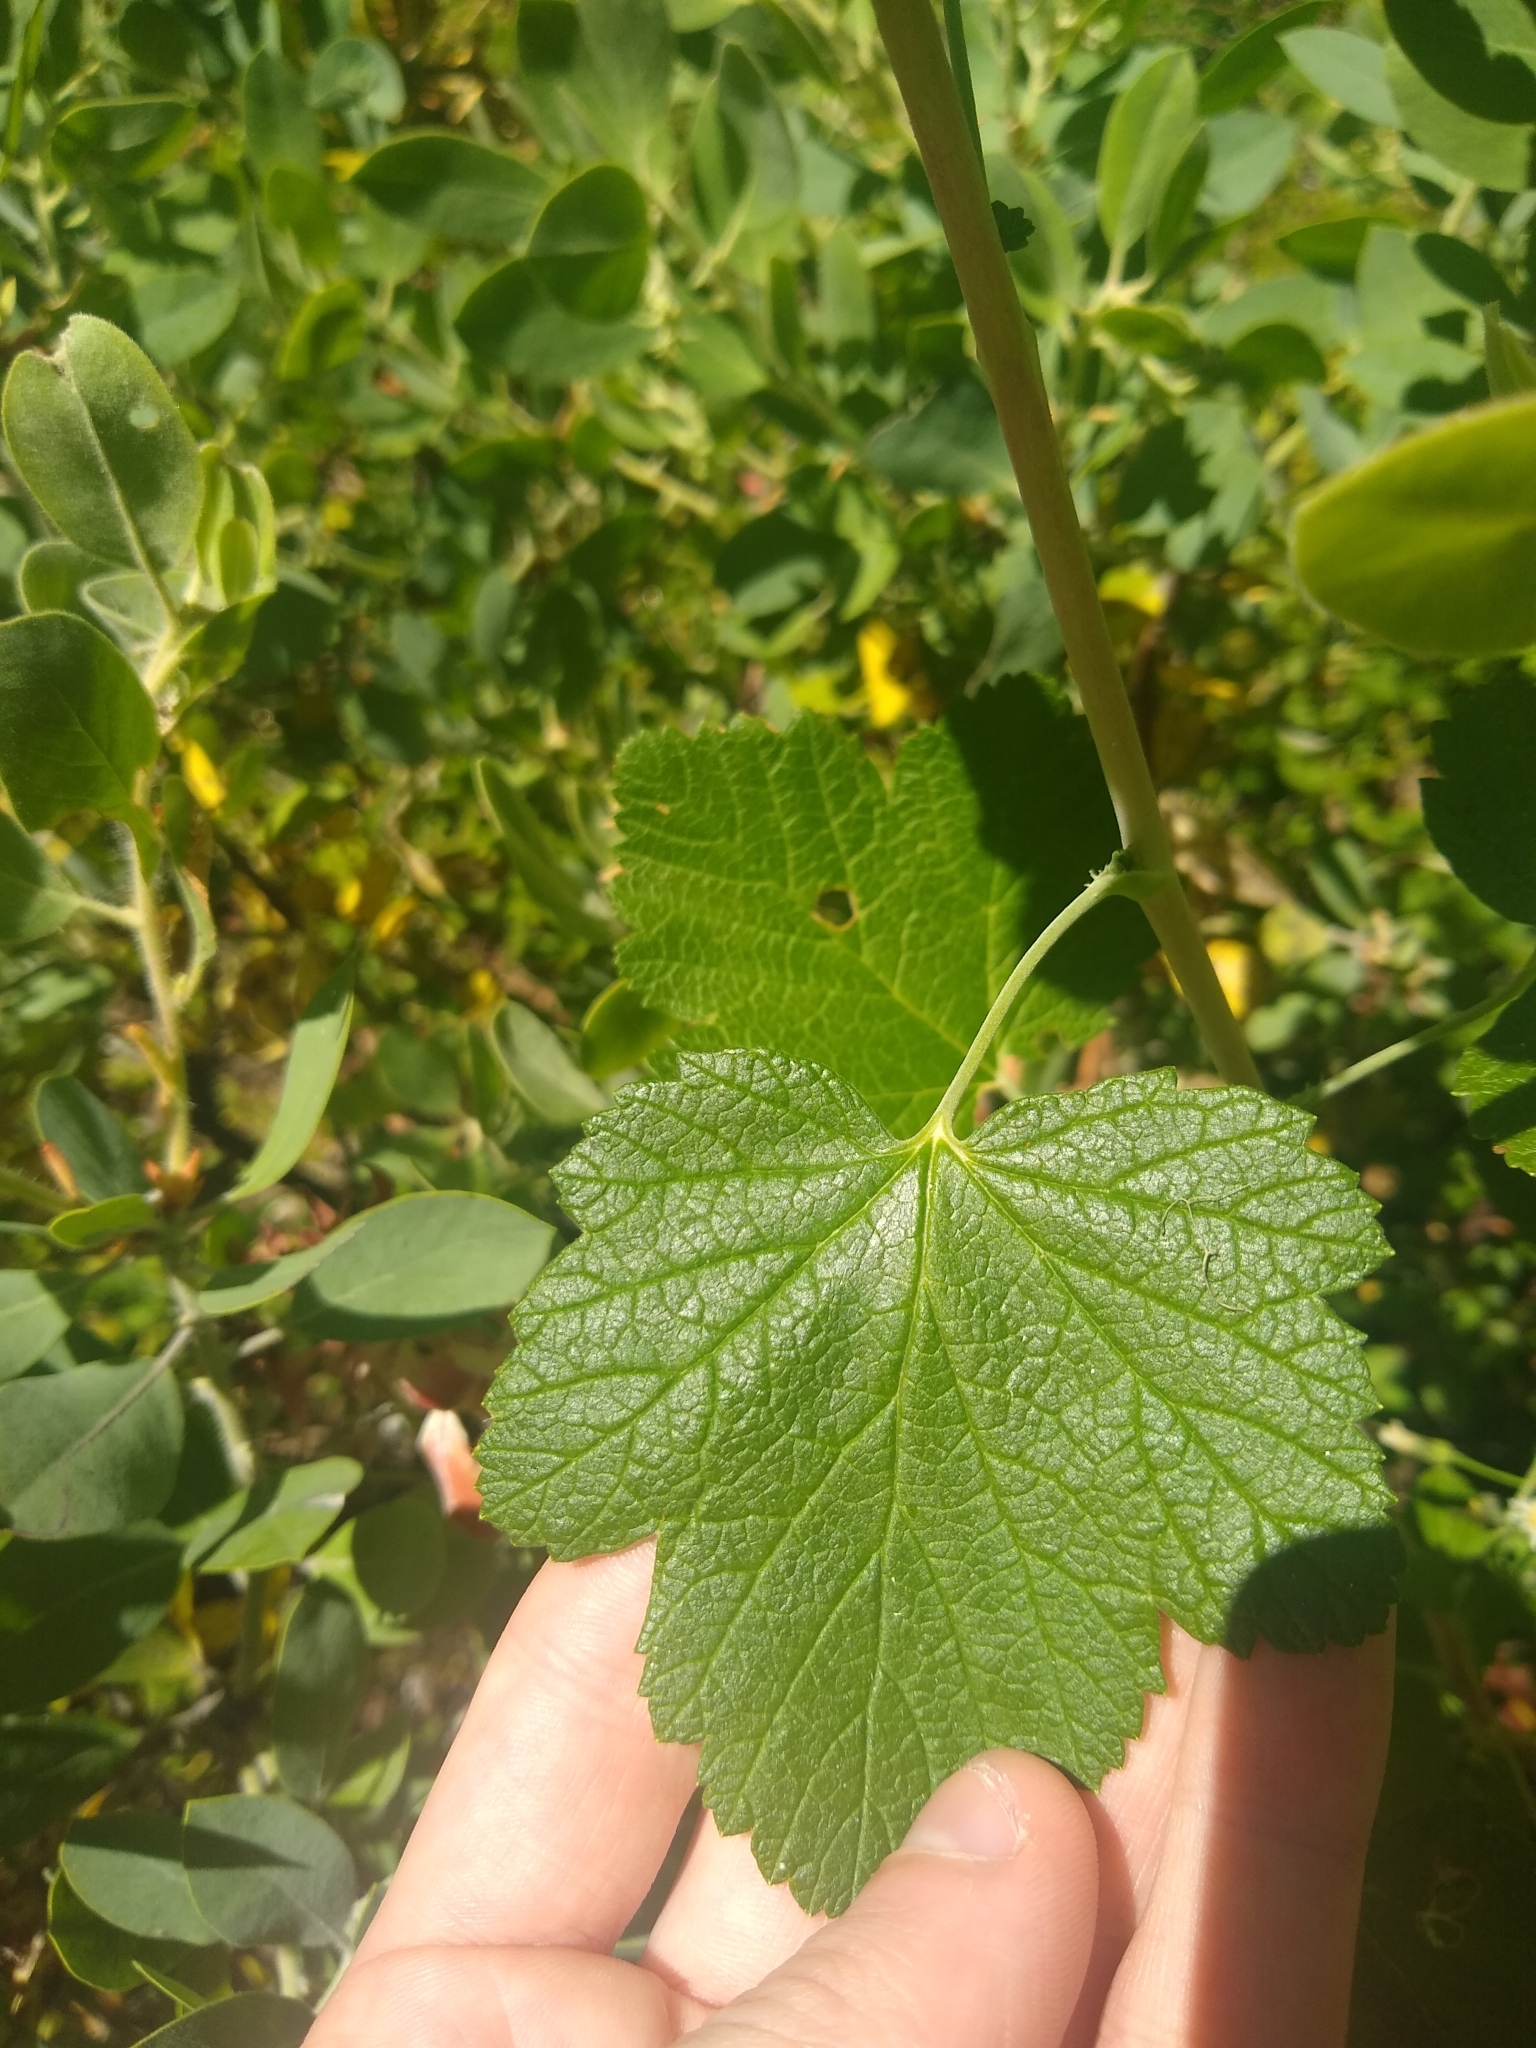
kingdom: Plantae
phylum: Tracheophyta
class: Magnoliopsida
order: Saxifragales
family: Grossulariaceae
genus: Ribes
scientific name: Ribes
